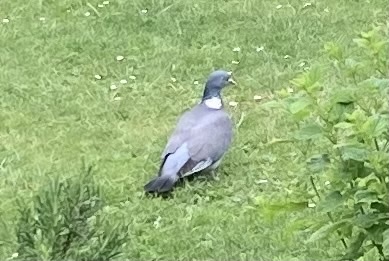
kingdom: Animalia
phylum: Chordata
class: Aves
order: Columbiformes
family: Columbidae
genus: Columba
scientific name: Columba palumbus
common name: Common wood pigeon
